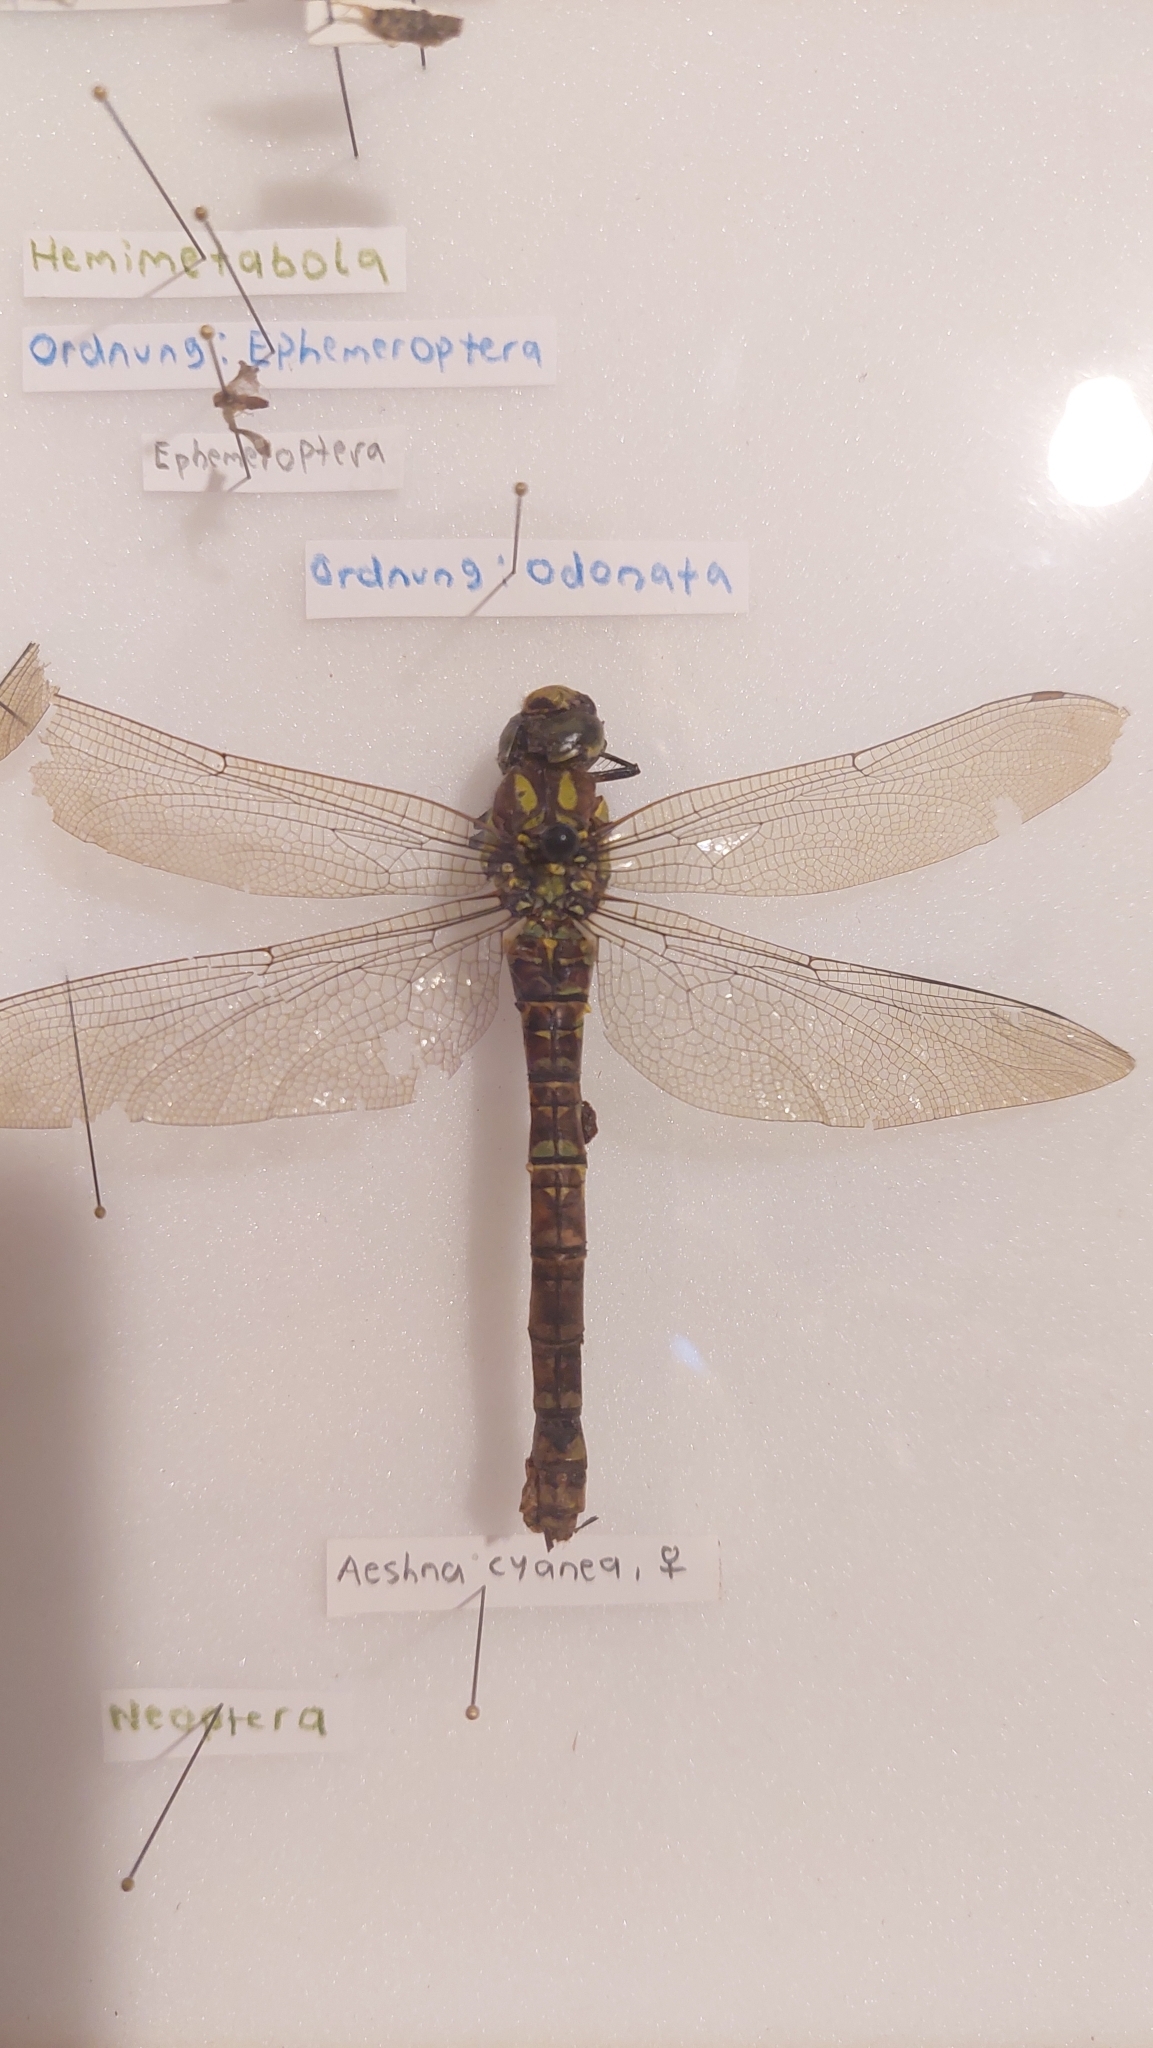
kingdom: Animalia
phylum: Arthropoda
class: Insecta
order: Odonata
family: Aeshnidae
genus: Aeshna
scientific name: Aeshna cyanea
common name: Southern hawker
